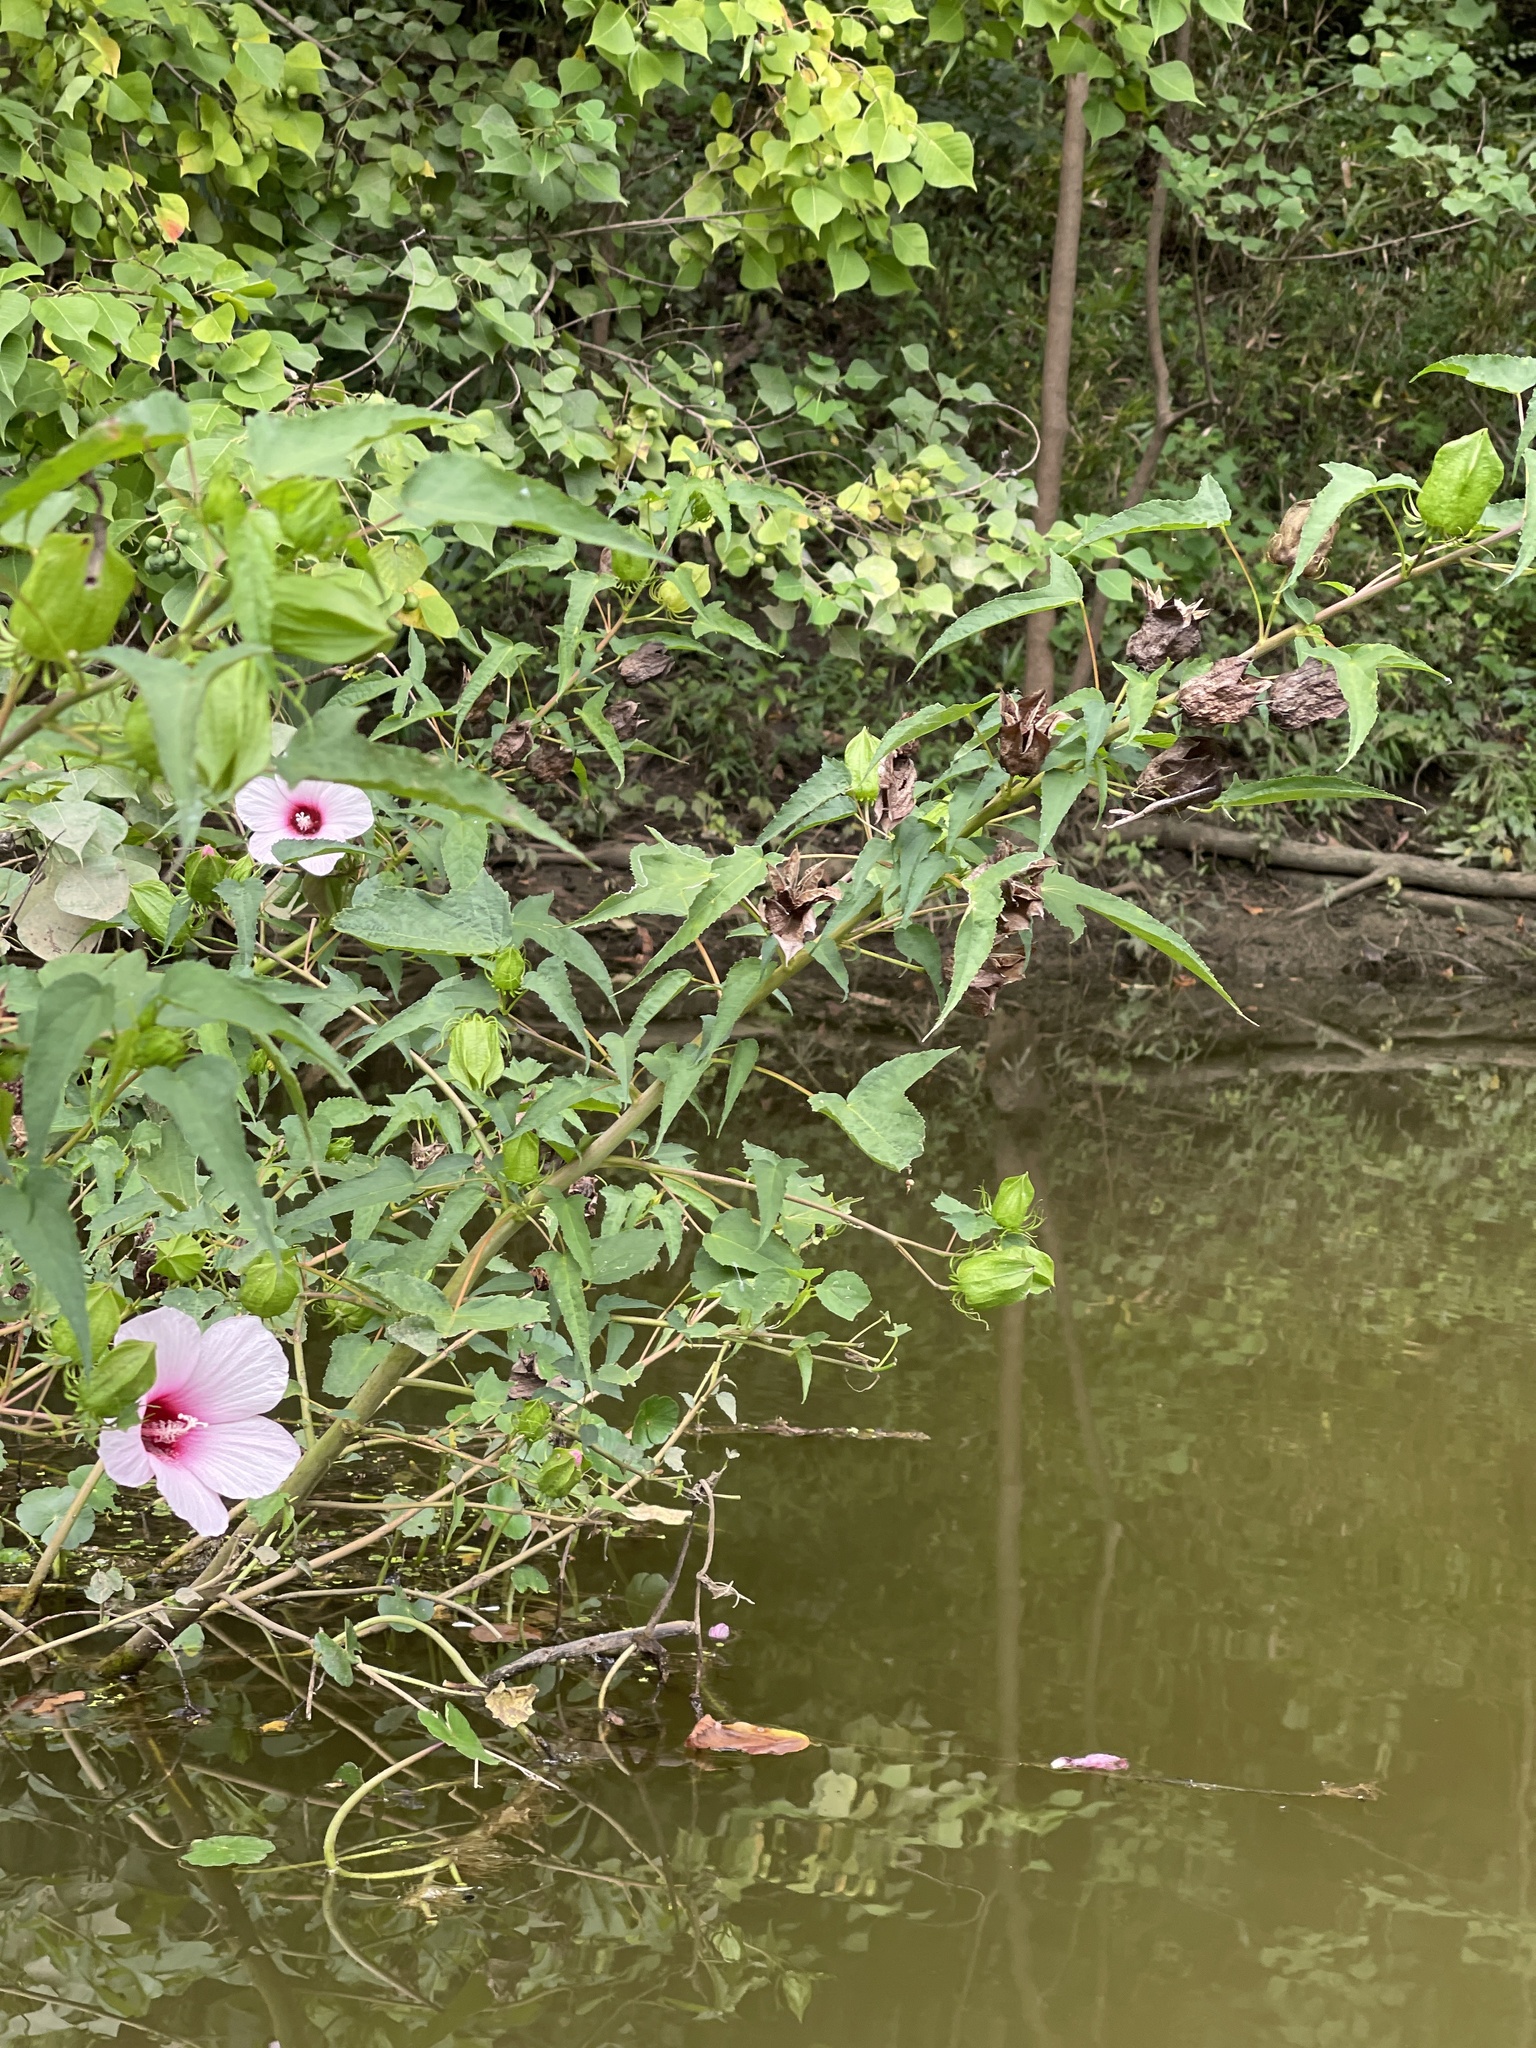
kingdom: Plantae
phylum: Tracheophyta
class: Magnoliopsida
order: Malvales
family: Malvaceae
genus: Hibiscus
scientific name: Hibiscus laevis
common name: Scarlet rose-mallow
